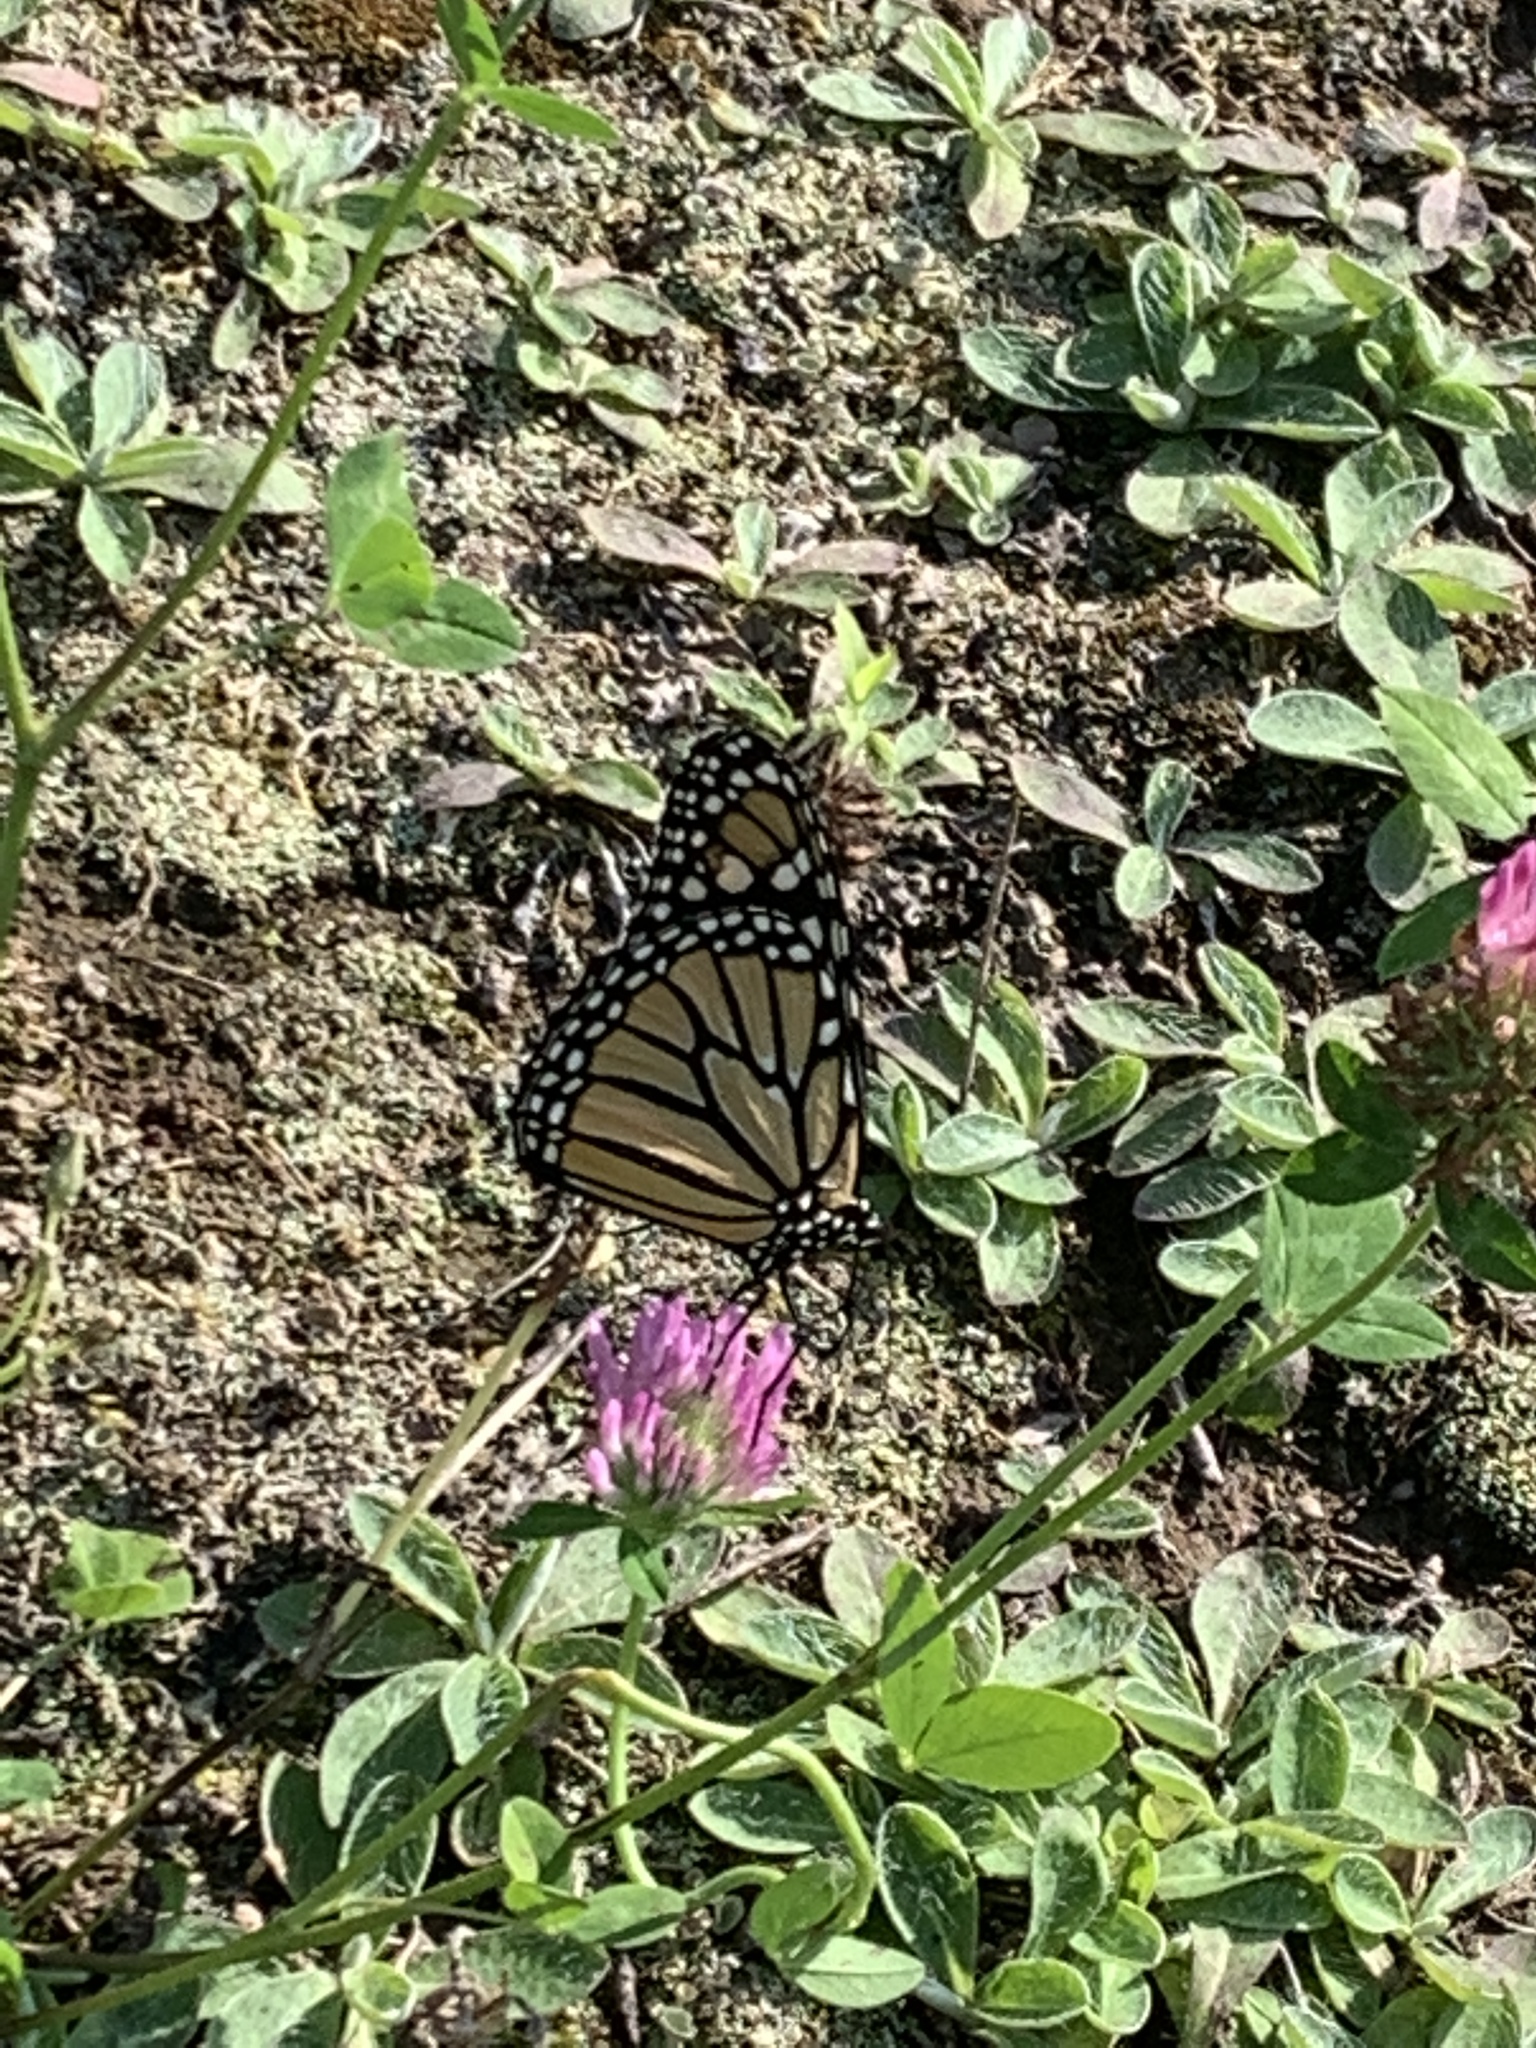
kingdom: Animalia
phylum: Arthropoda
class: Insecta
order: Lepidoptera
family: Nymphalidae
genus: Danaus
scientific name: Danaus plexippus
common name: Monarch
